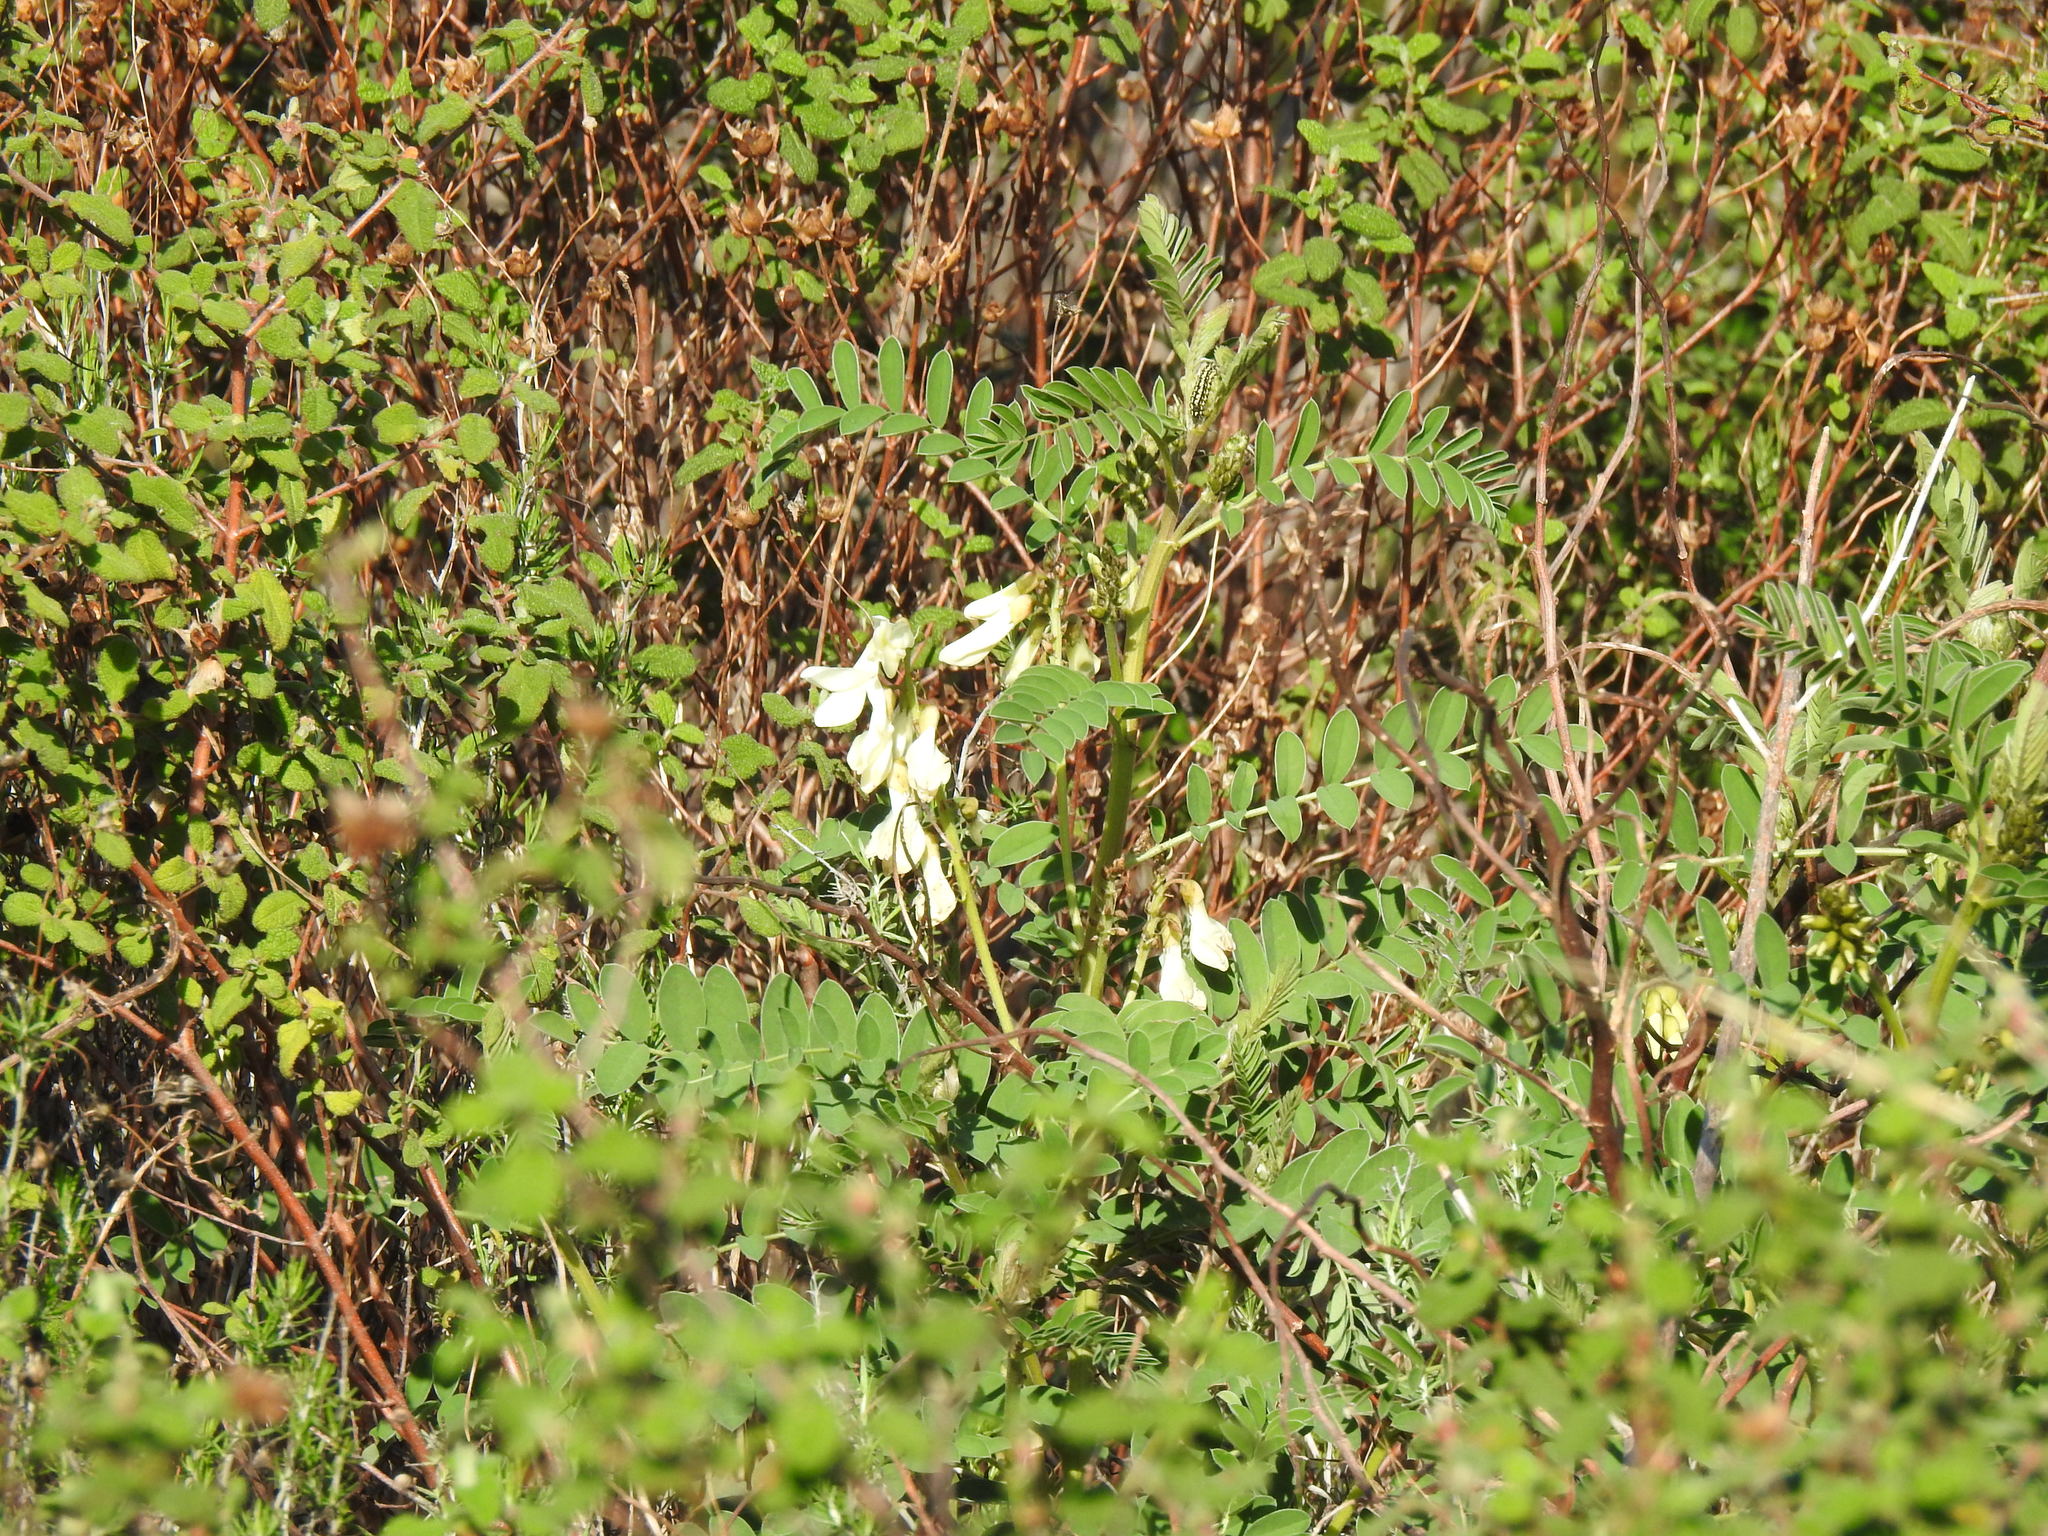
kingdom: Plantae
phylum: Tracheophyta
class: Magnoliopsida
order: Fabales
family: Fabaceae
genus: Erophaca
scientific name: Erophaca baetica
